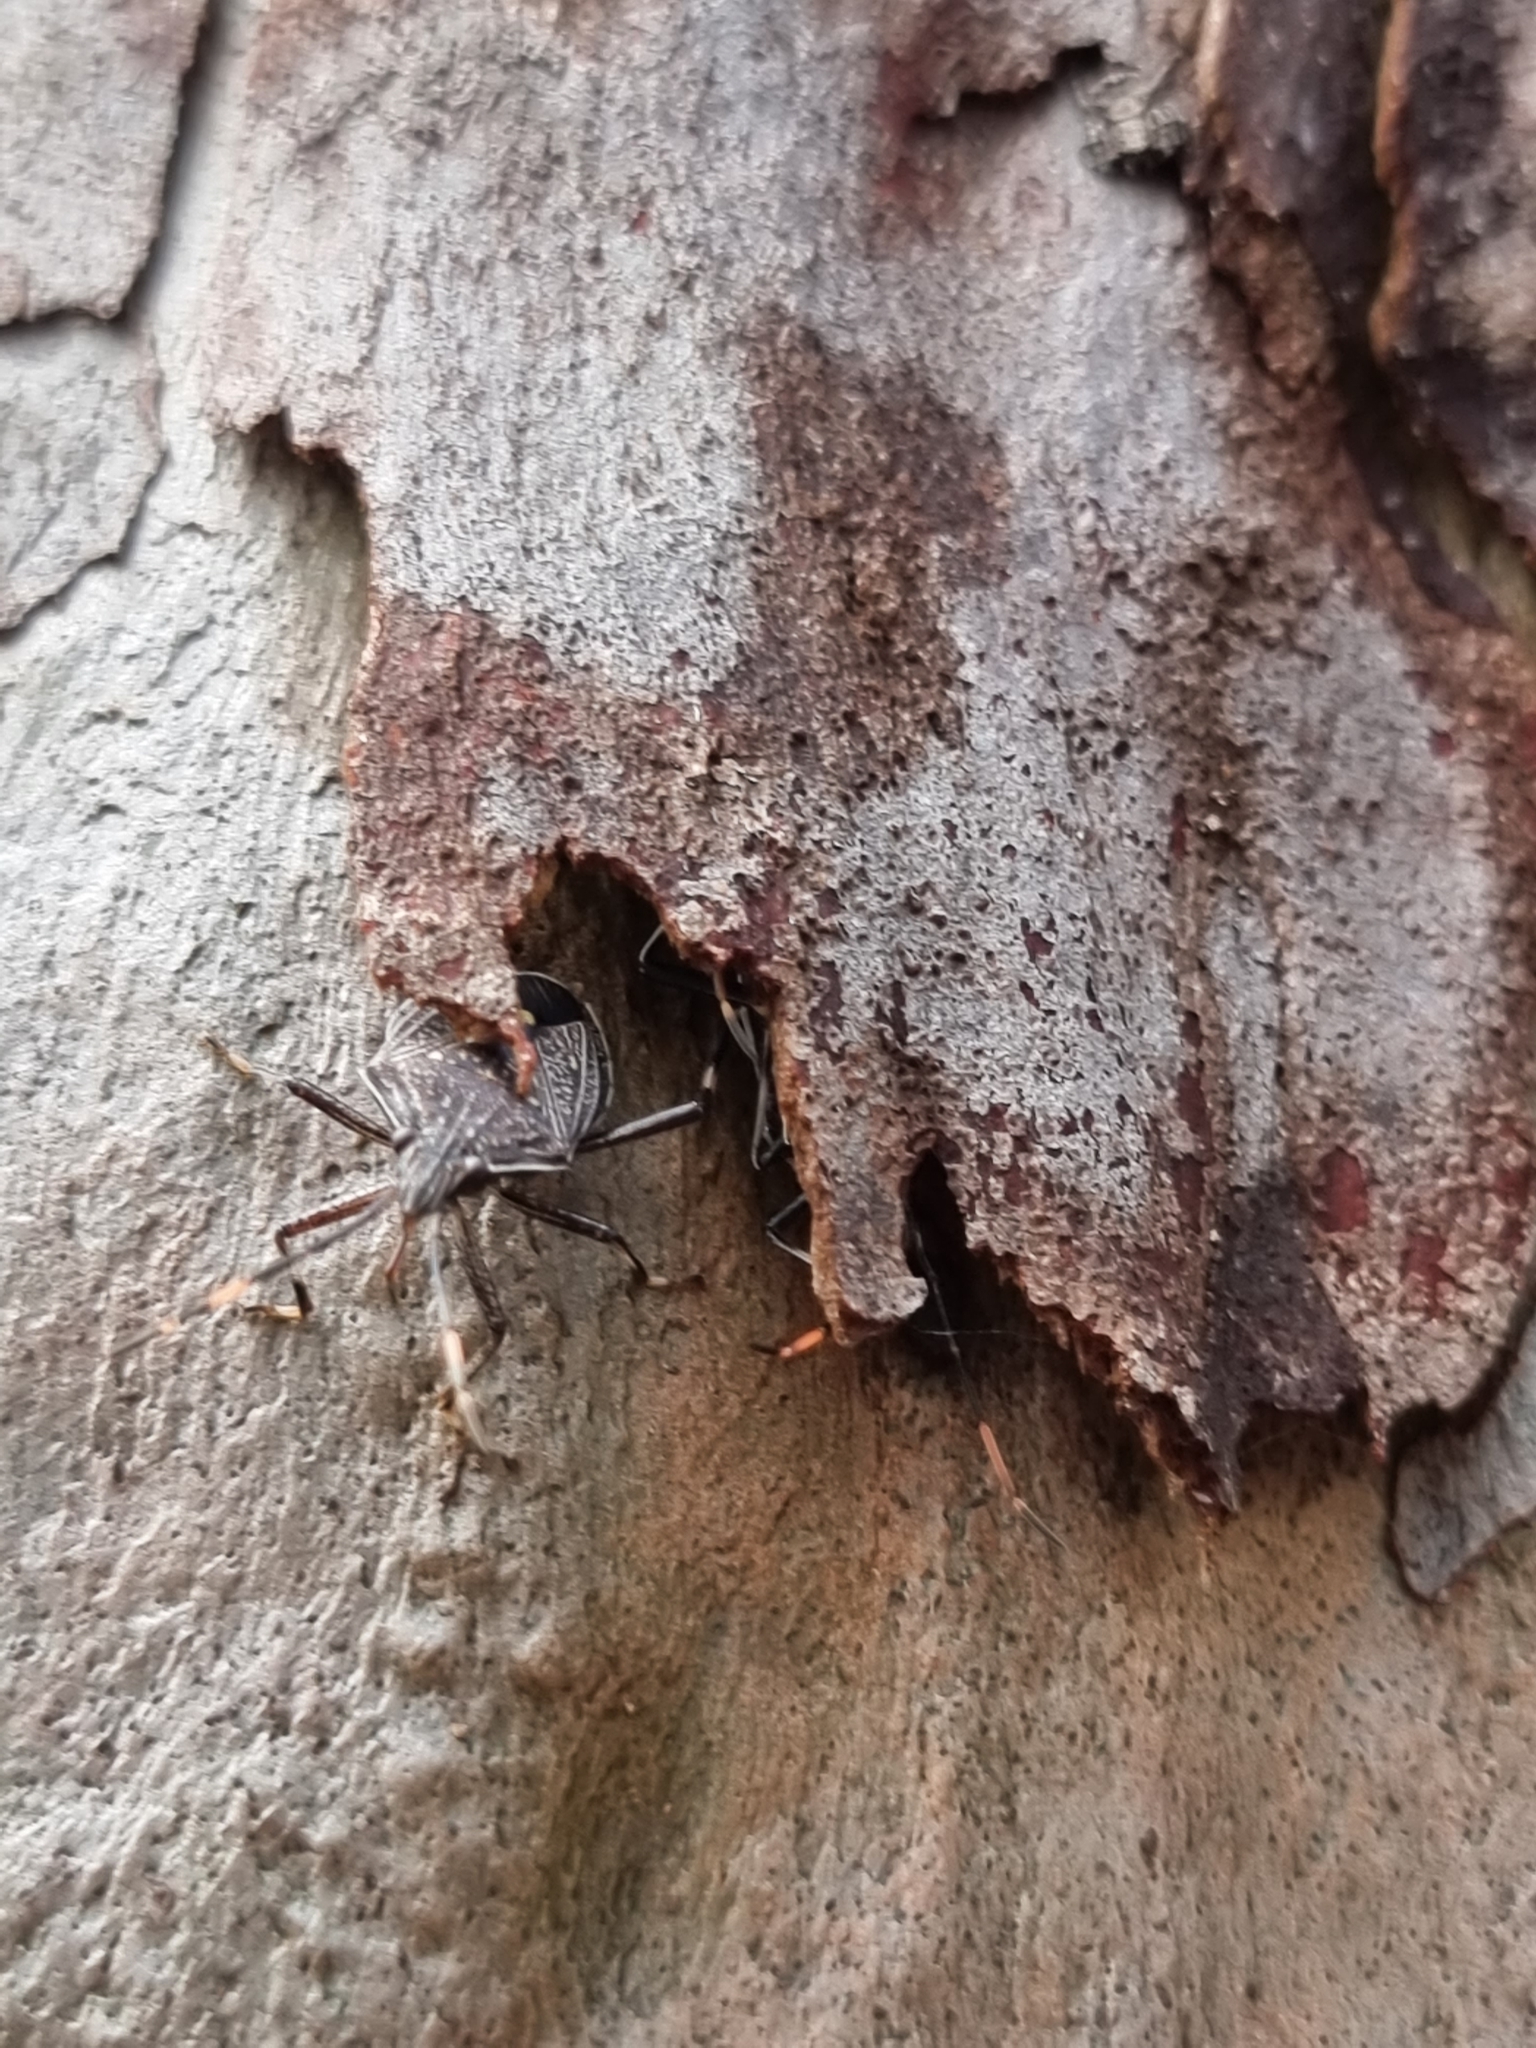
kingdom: Animalia
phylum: Arthropoda
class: Insecta
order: Hemiptera
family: Pentatomidae
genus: Theseus
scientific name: Theseus modestus
